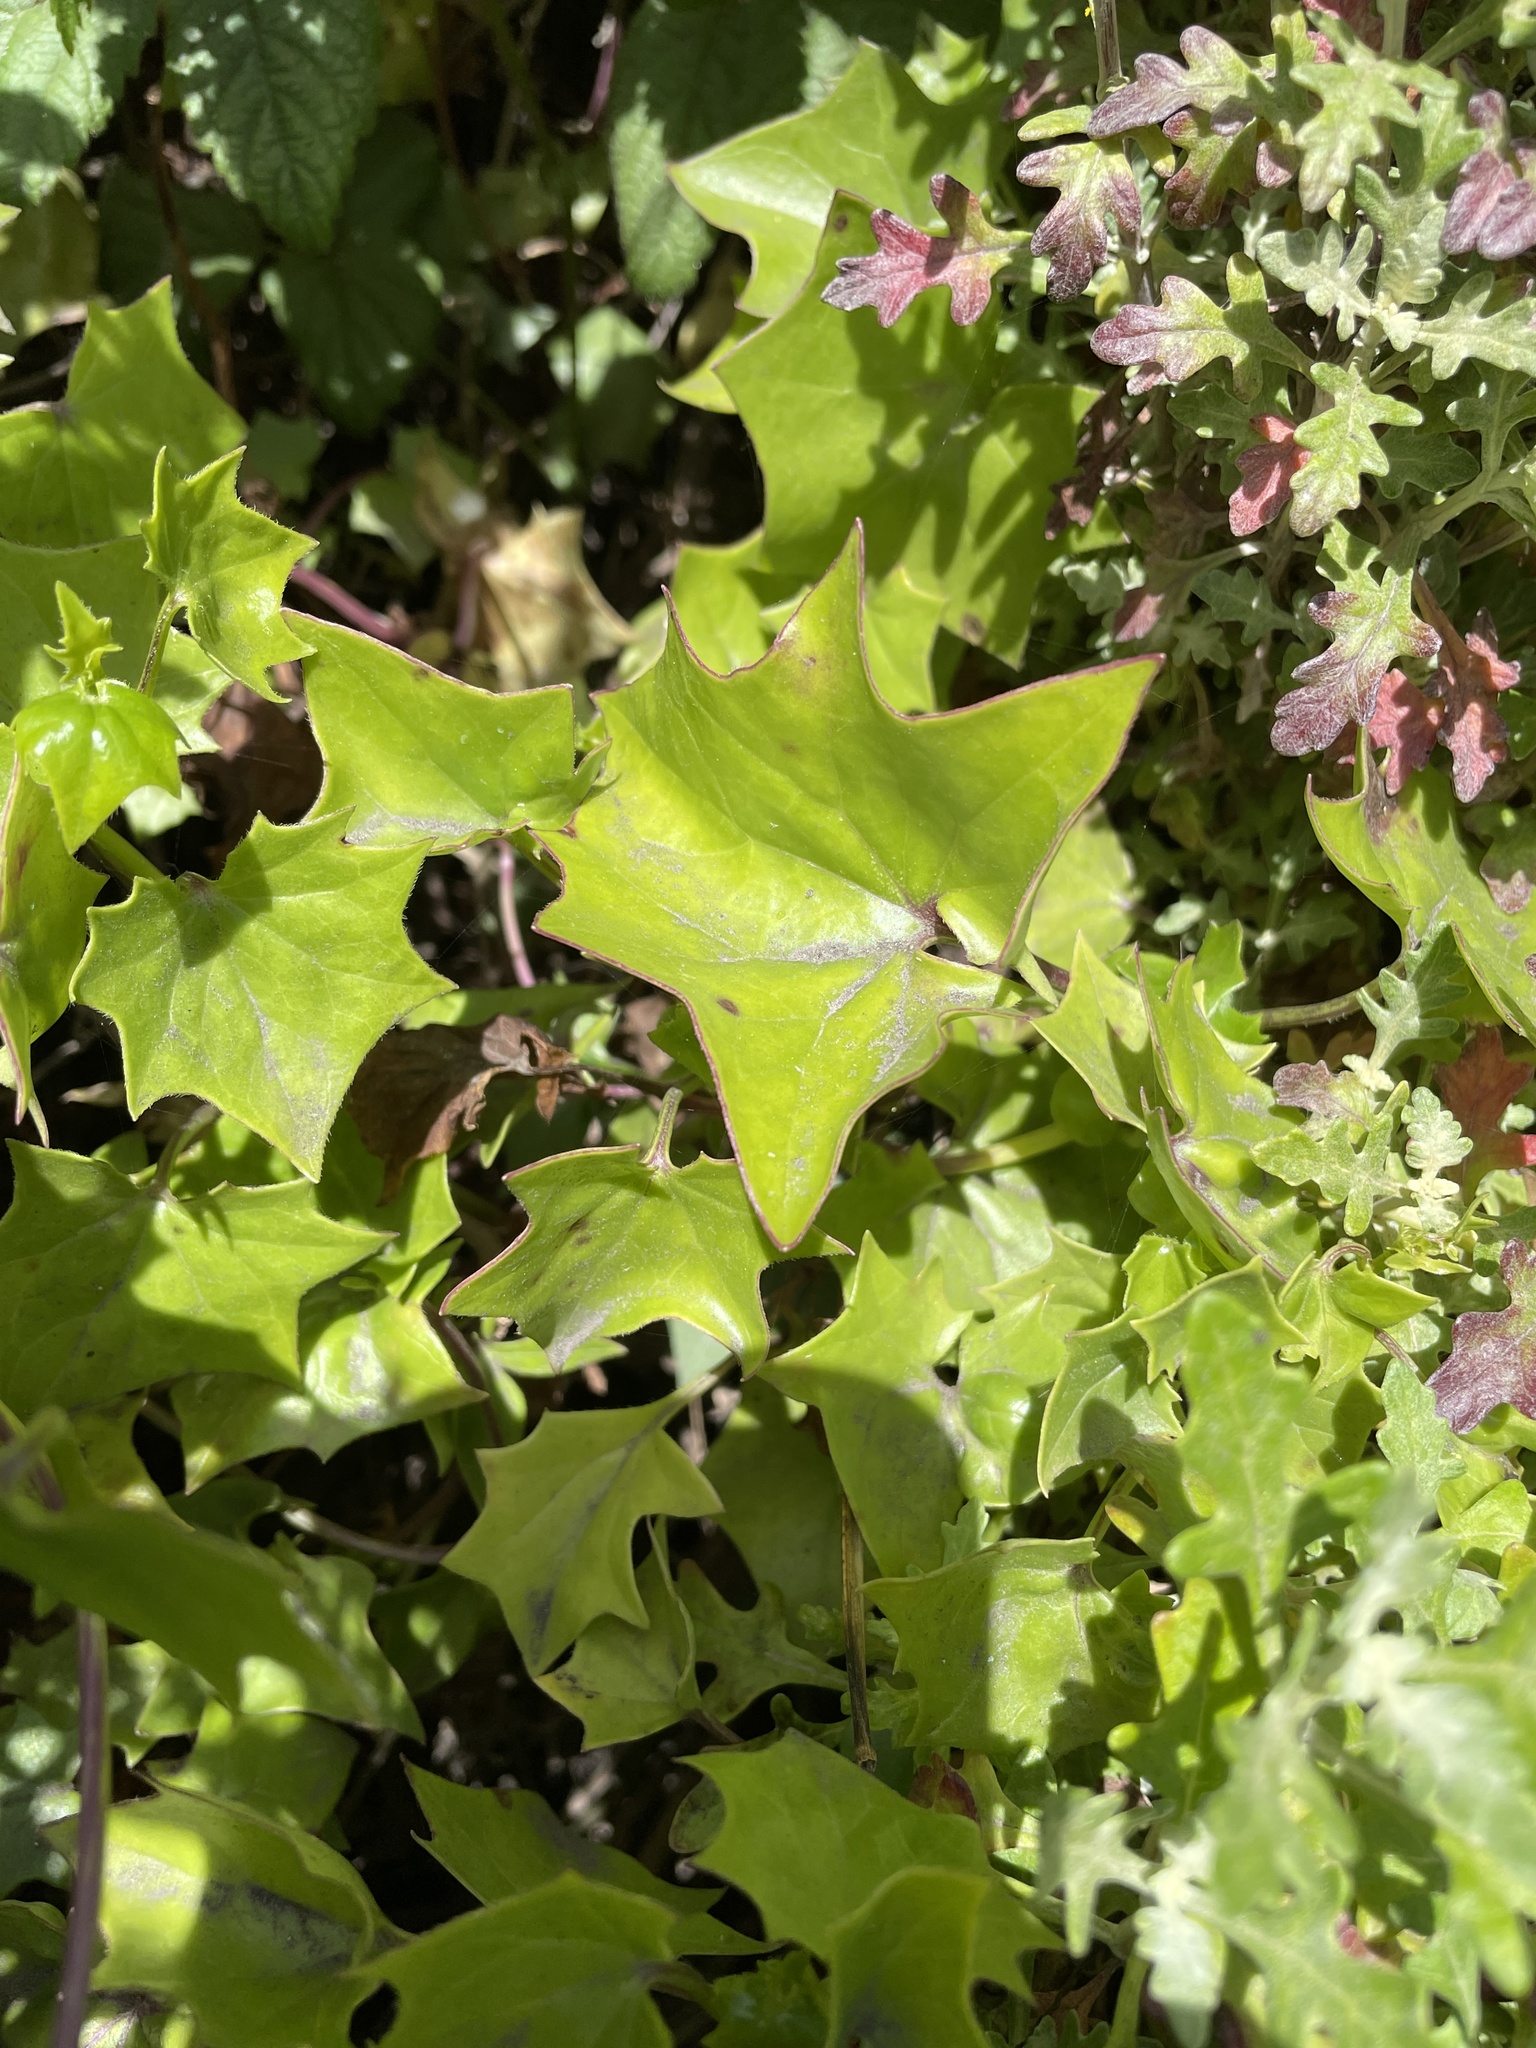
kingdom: Plantae
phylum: Tracheophyta
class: Magnoliopsida
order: Asterales
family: Asteraceae
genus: Delairea
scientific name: Delairea odorata
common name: Cape-ivy
